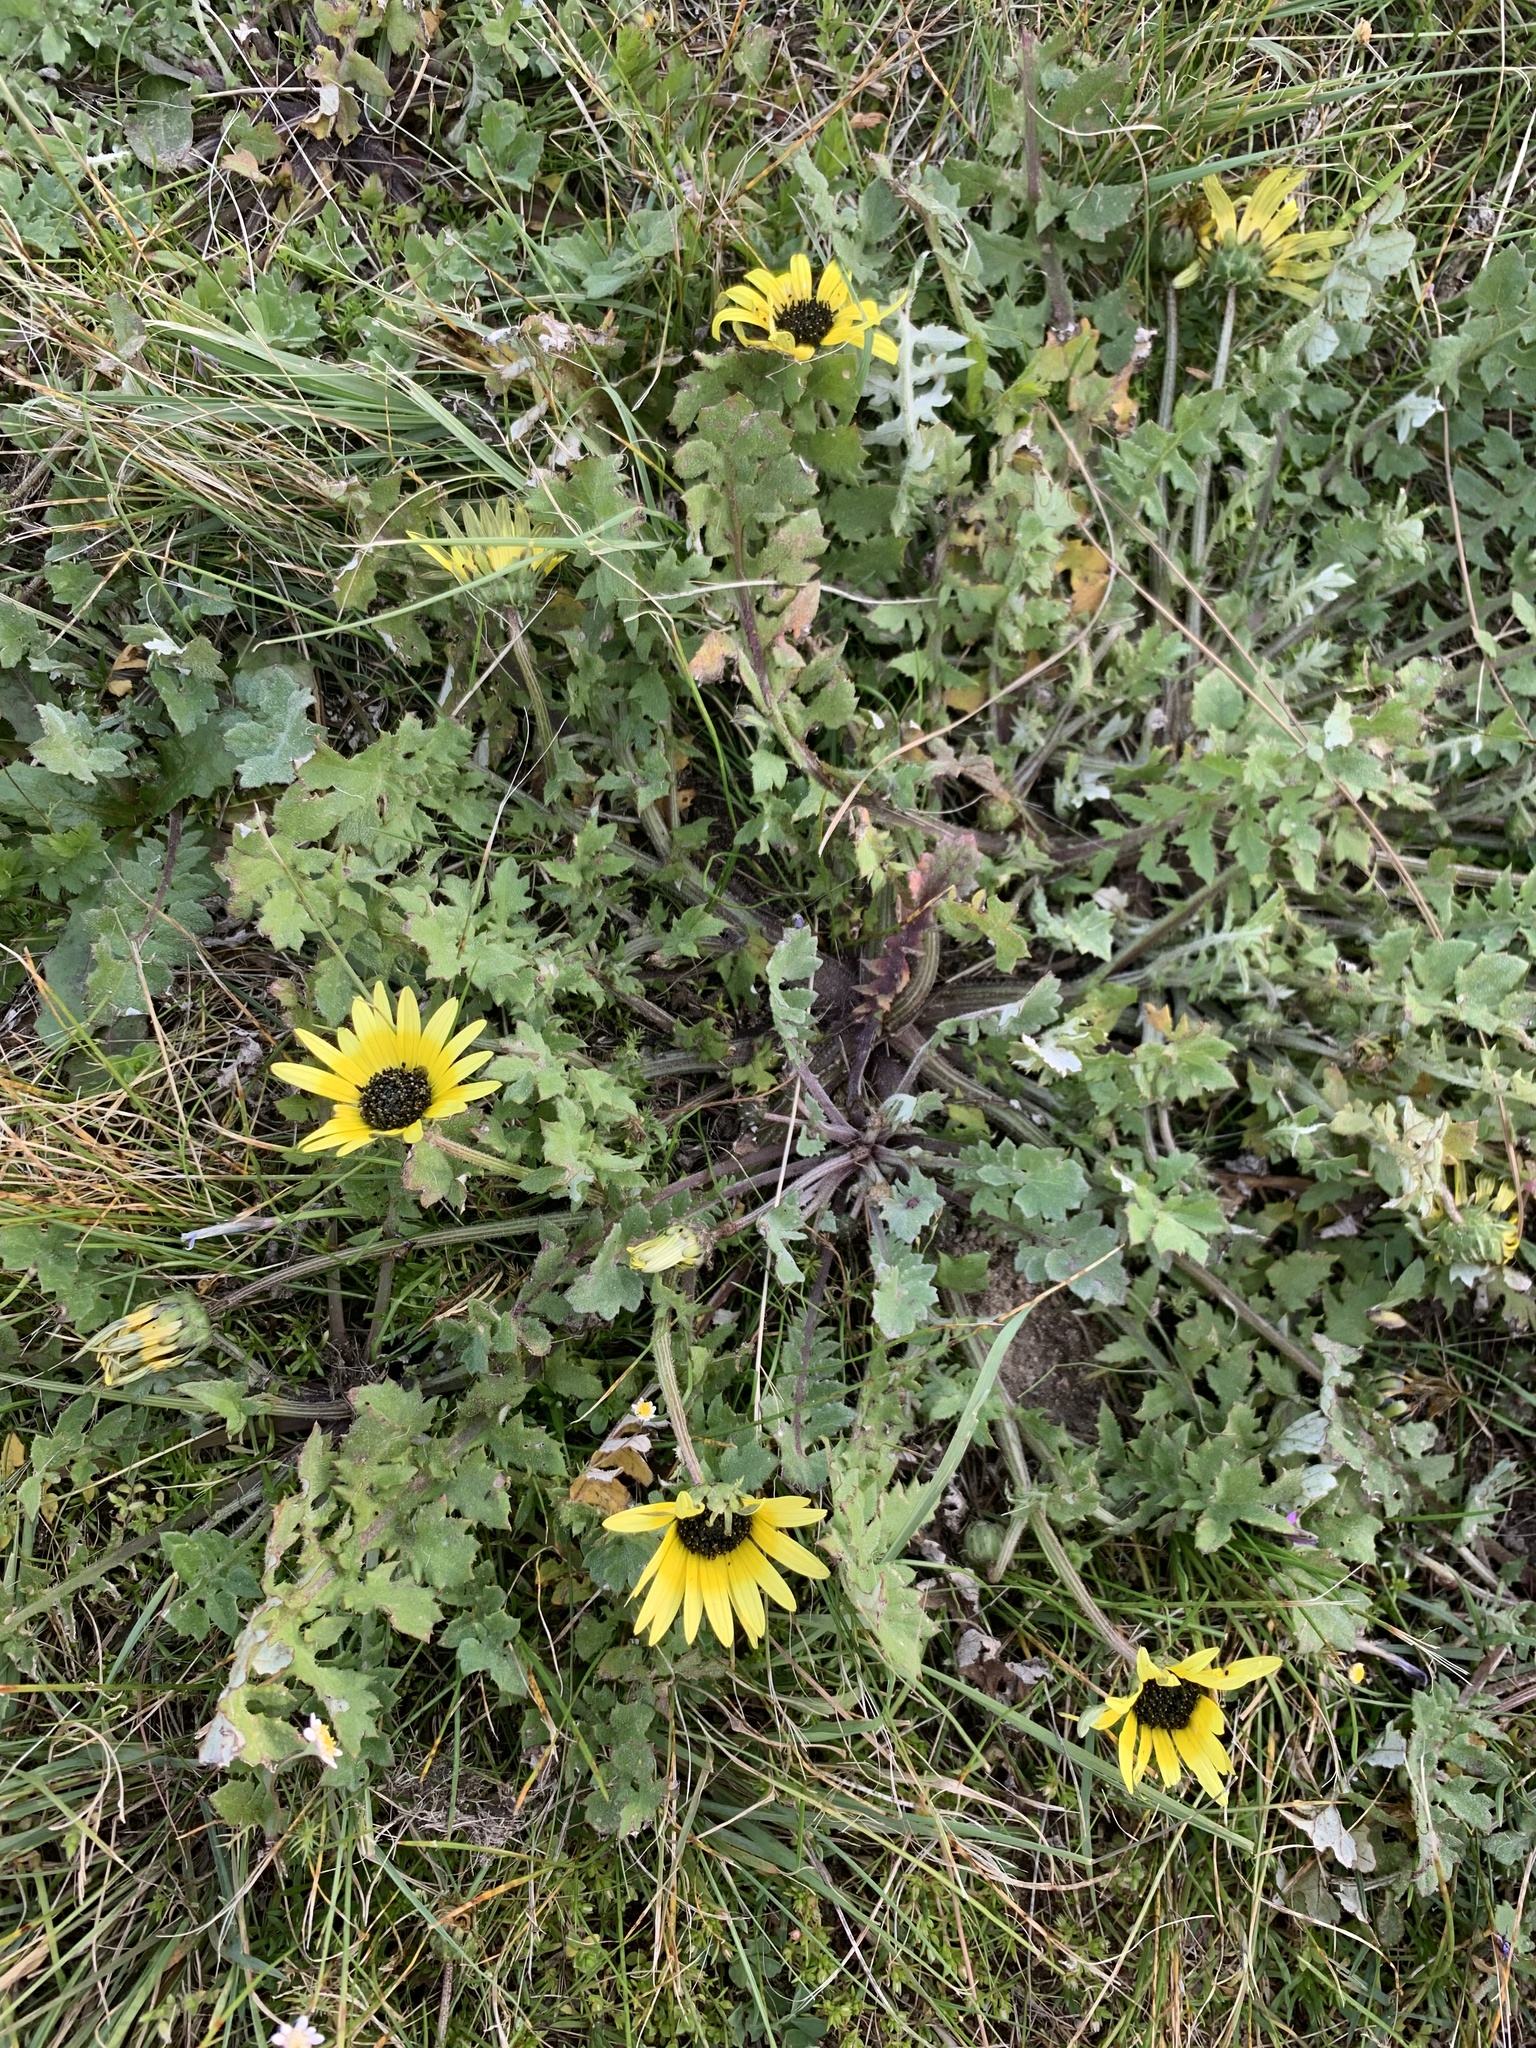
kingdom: Plantae
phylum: Tracheophyta
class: Magnoliopsida
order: Asterales
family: Asteraceae
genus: Arctotheca
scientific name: Arctotheca calendula
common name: Capeweed
